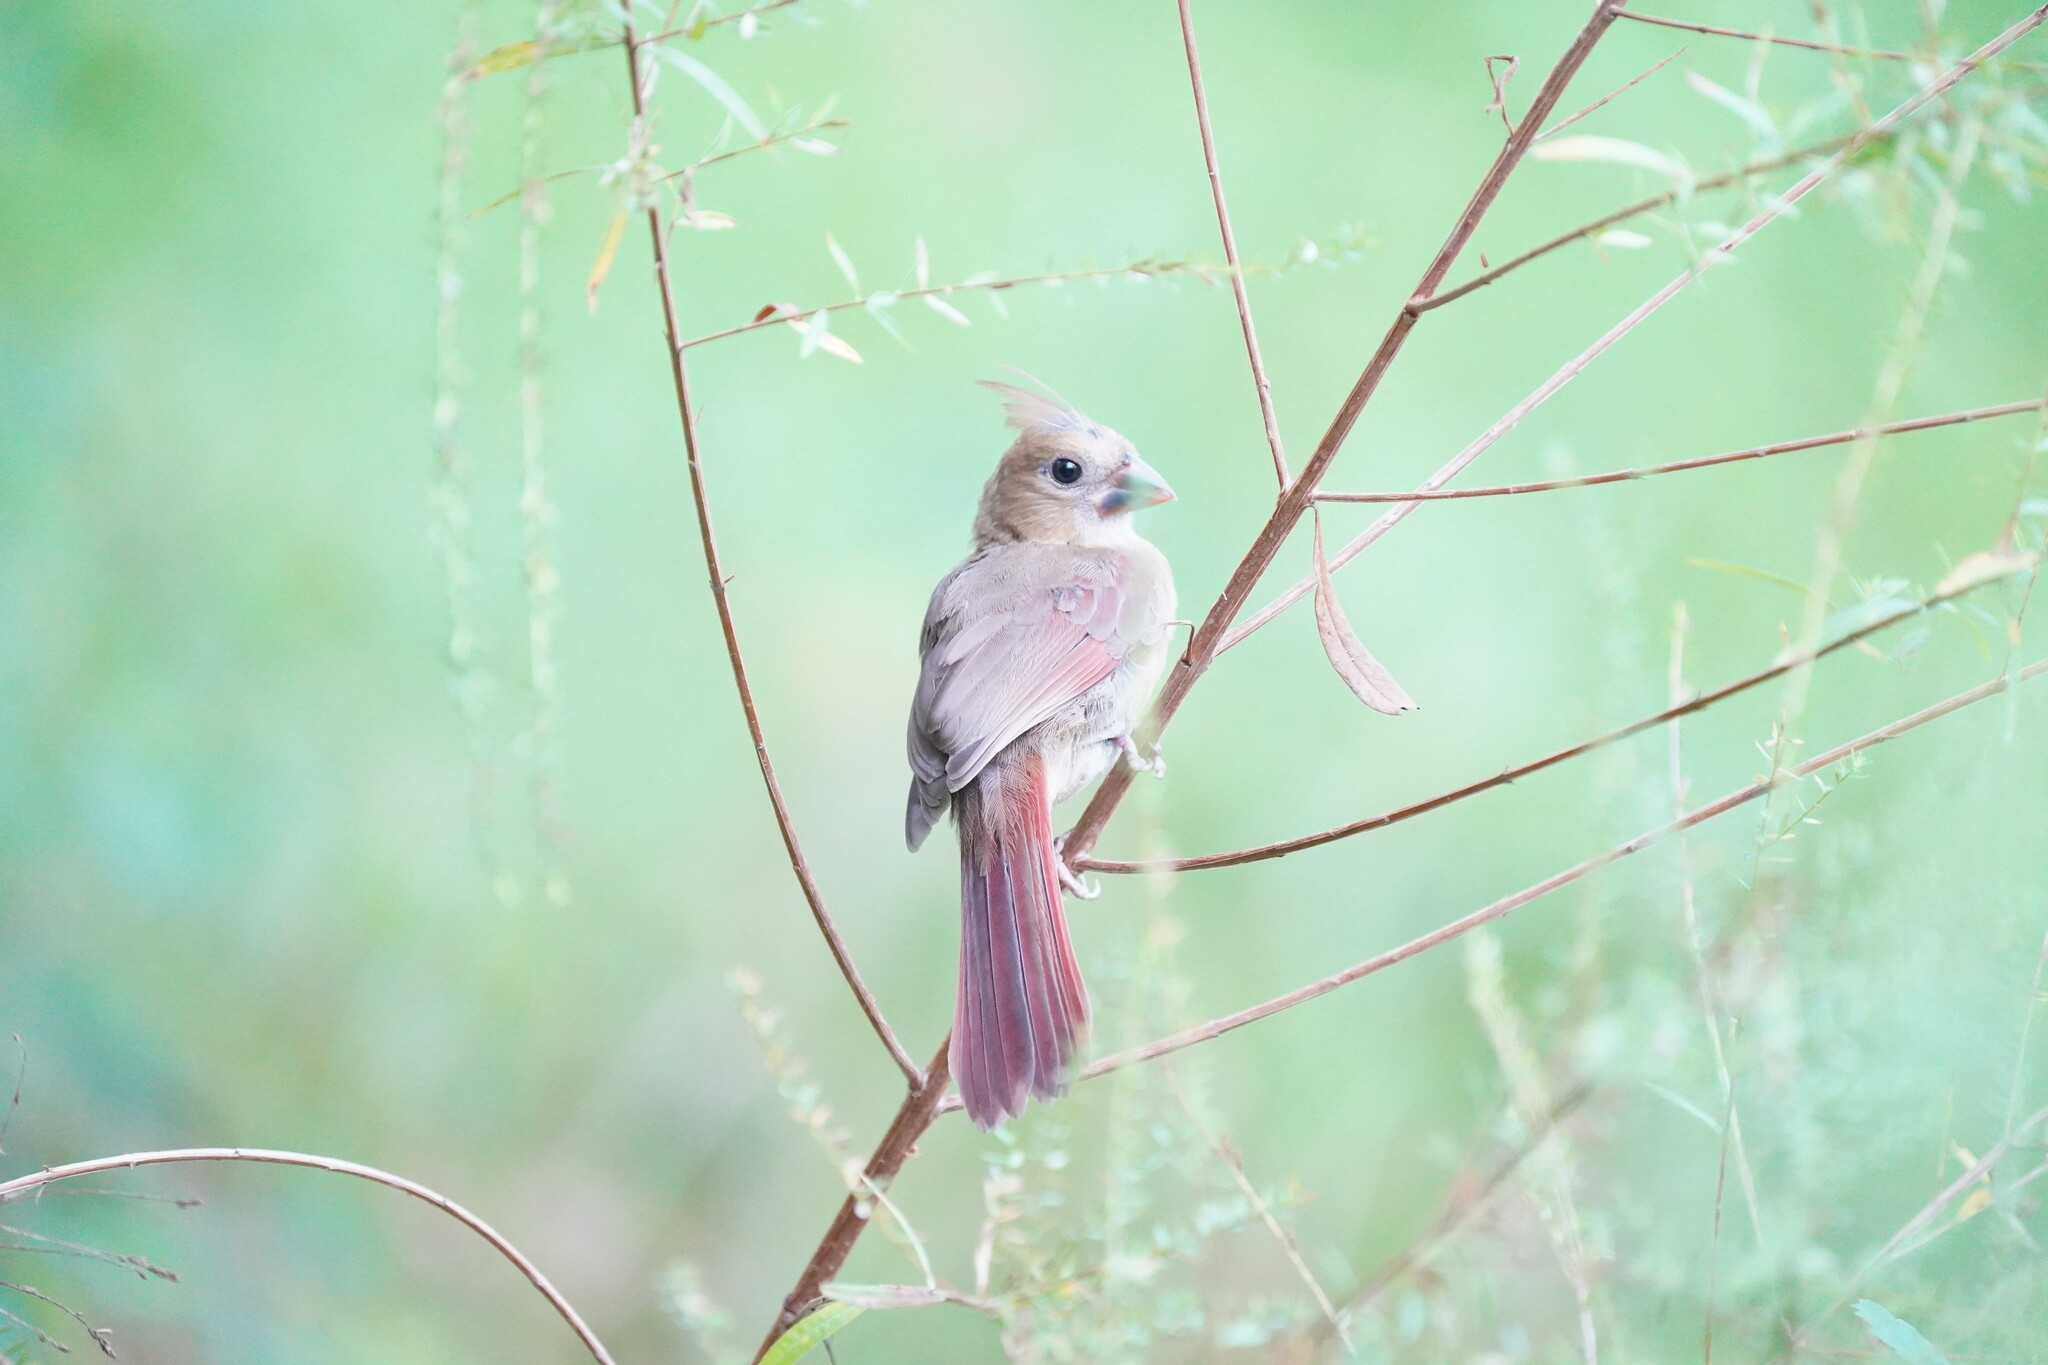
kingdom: Animalia
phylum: Chordata
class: Aves
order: Passeriformes
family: Cardinalidae
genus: Cardinalis
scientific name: Cardinalis cardinalis
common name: Northern cardinal
